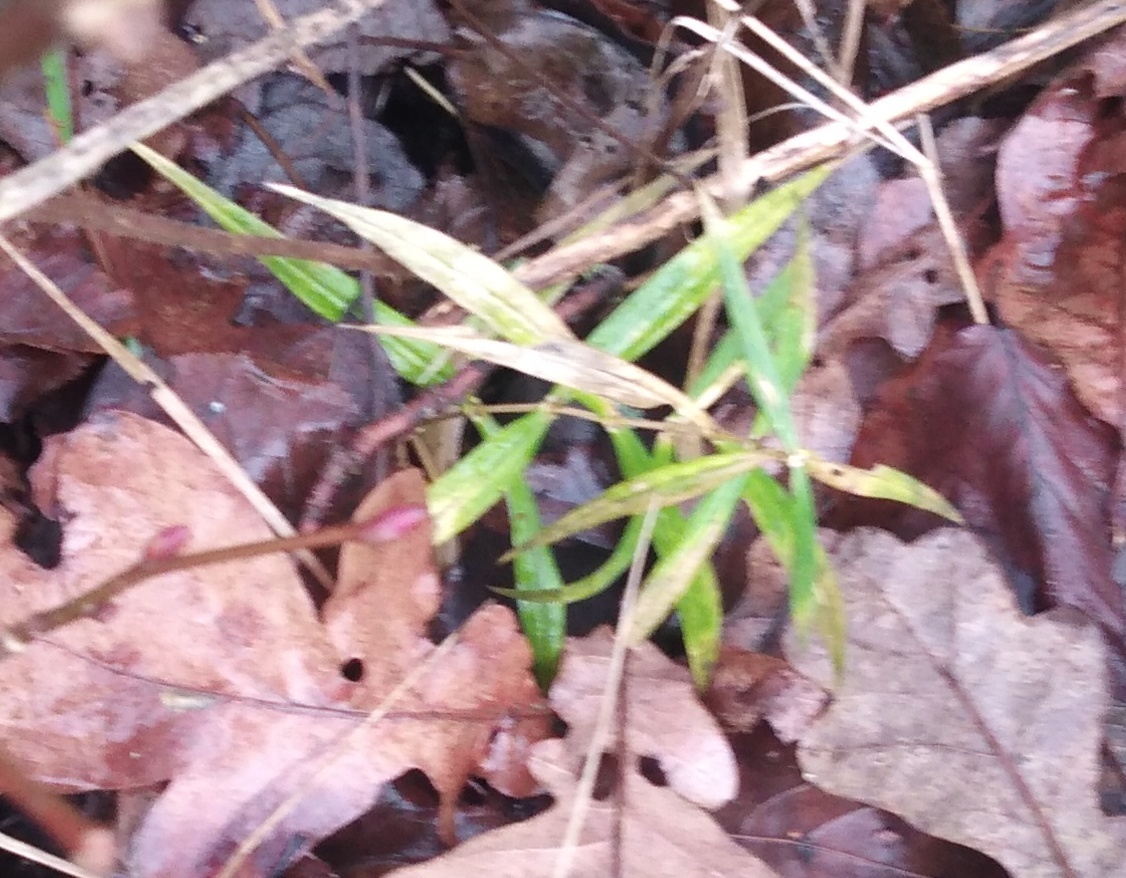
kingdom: Plantae
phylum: Tracheophyta
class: Magnoliopsida
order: Caryophyllales
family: Caryophyllaceae
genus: Rabelera
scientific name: Rabelera holostea
